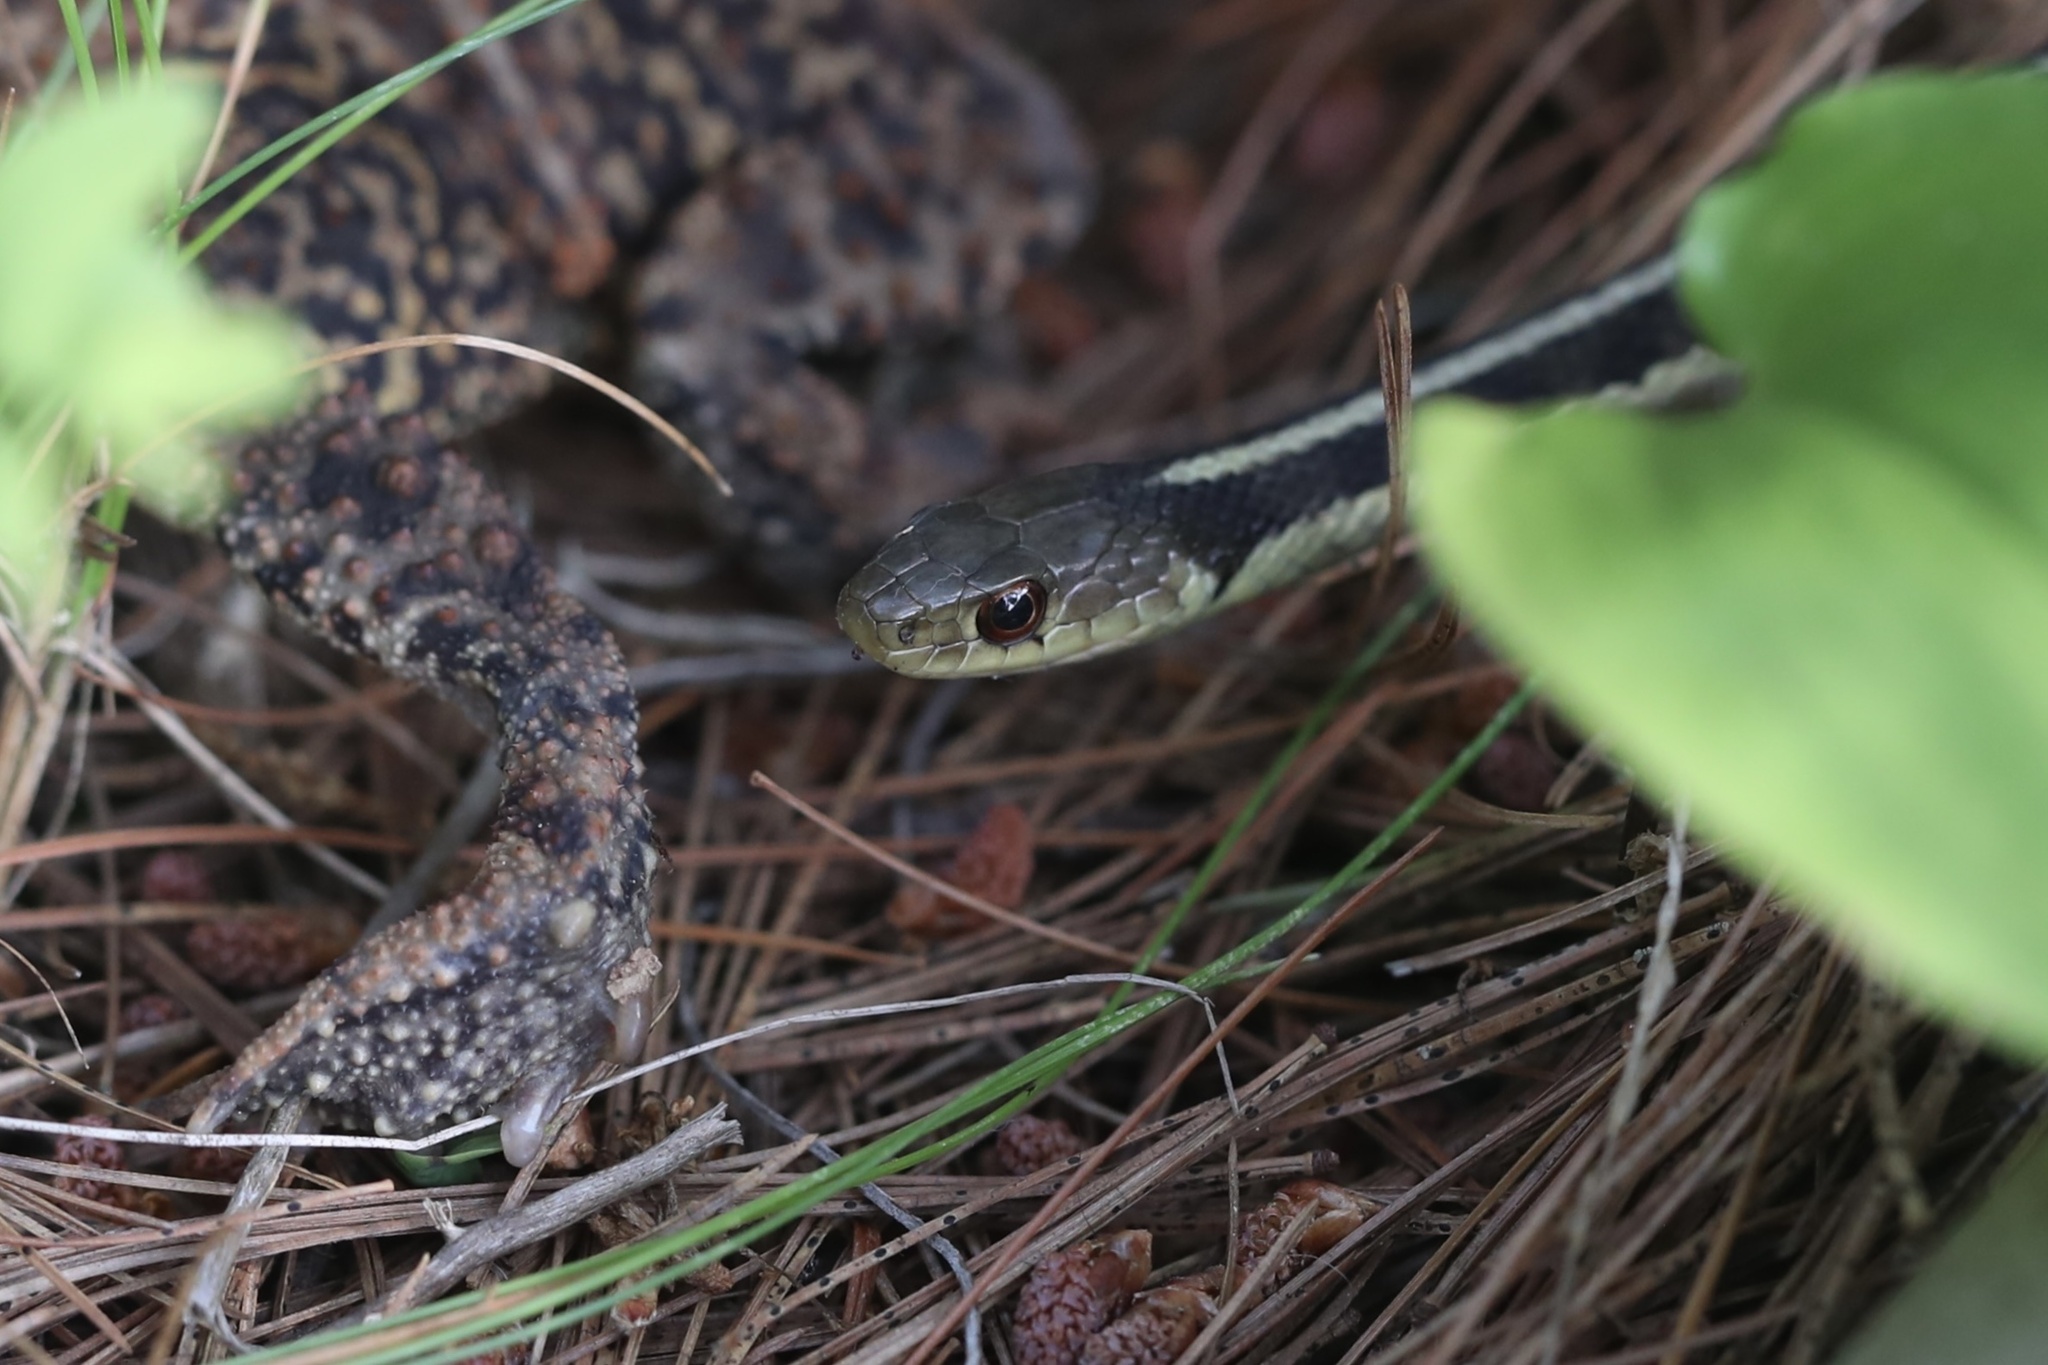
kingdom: Animalia
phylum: Chordata
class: Squamata
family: Colubridae
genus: Thamnophis
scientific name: Thamnophis sirtalis
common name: Common garter snake
